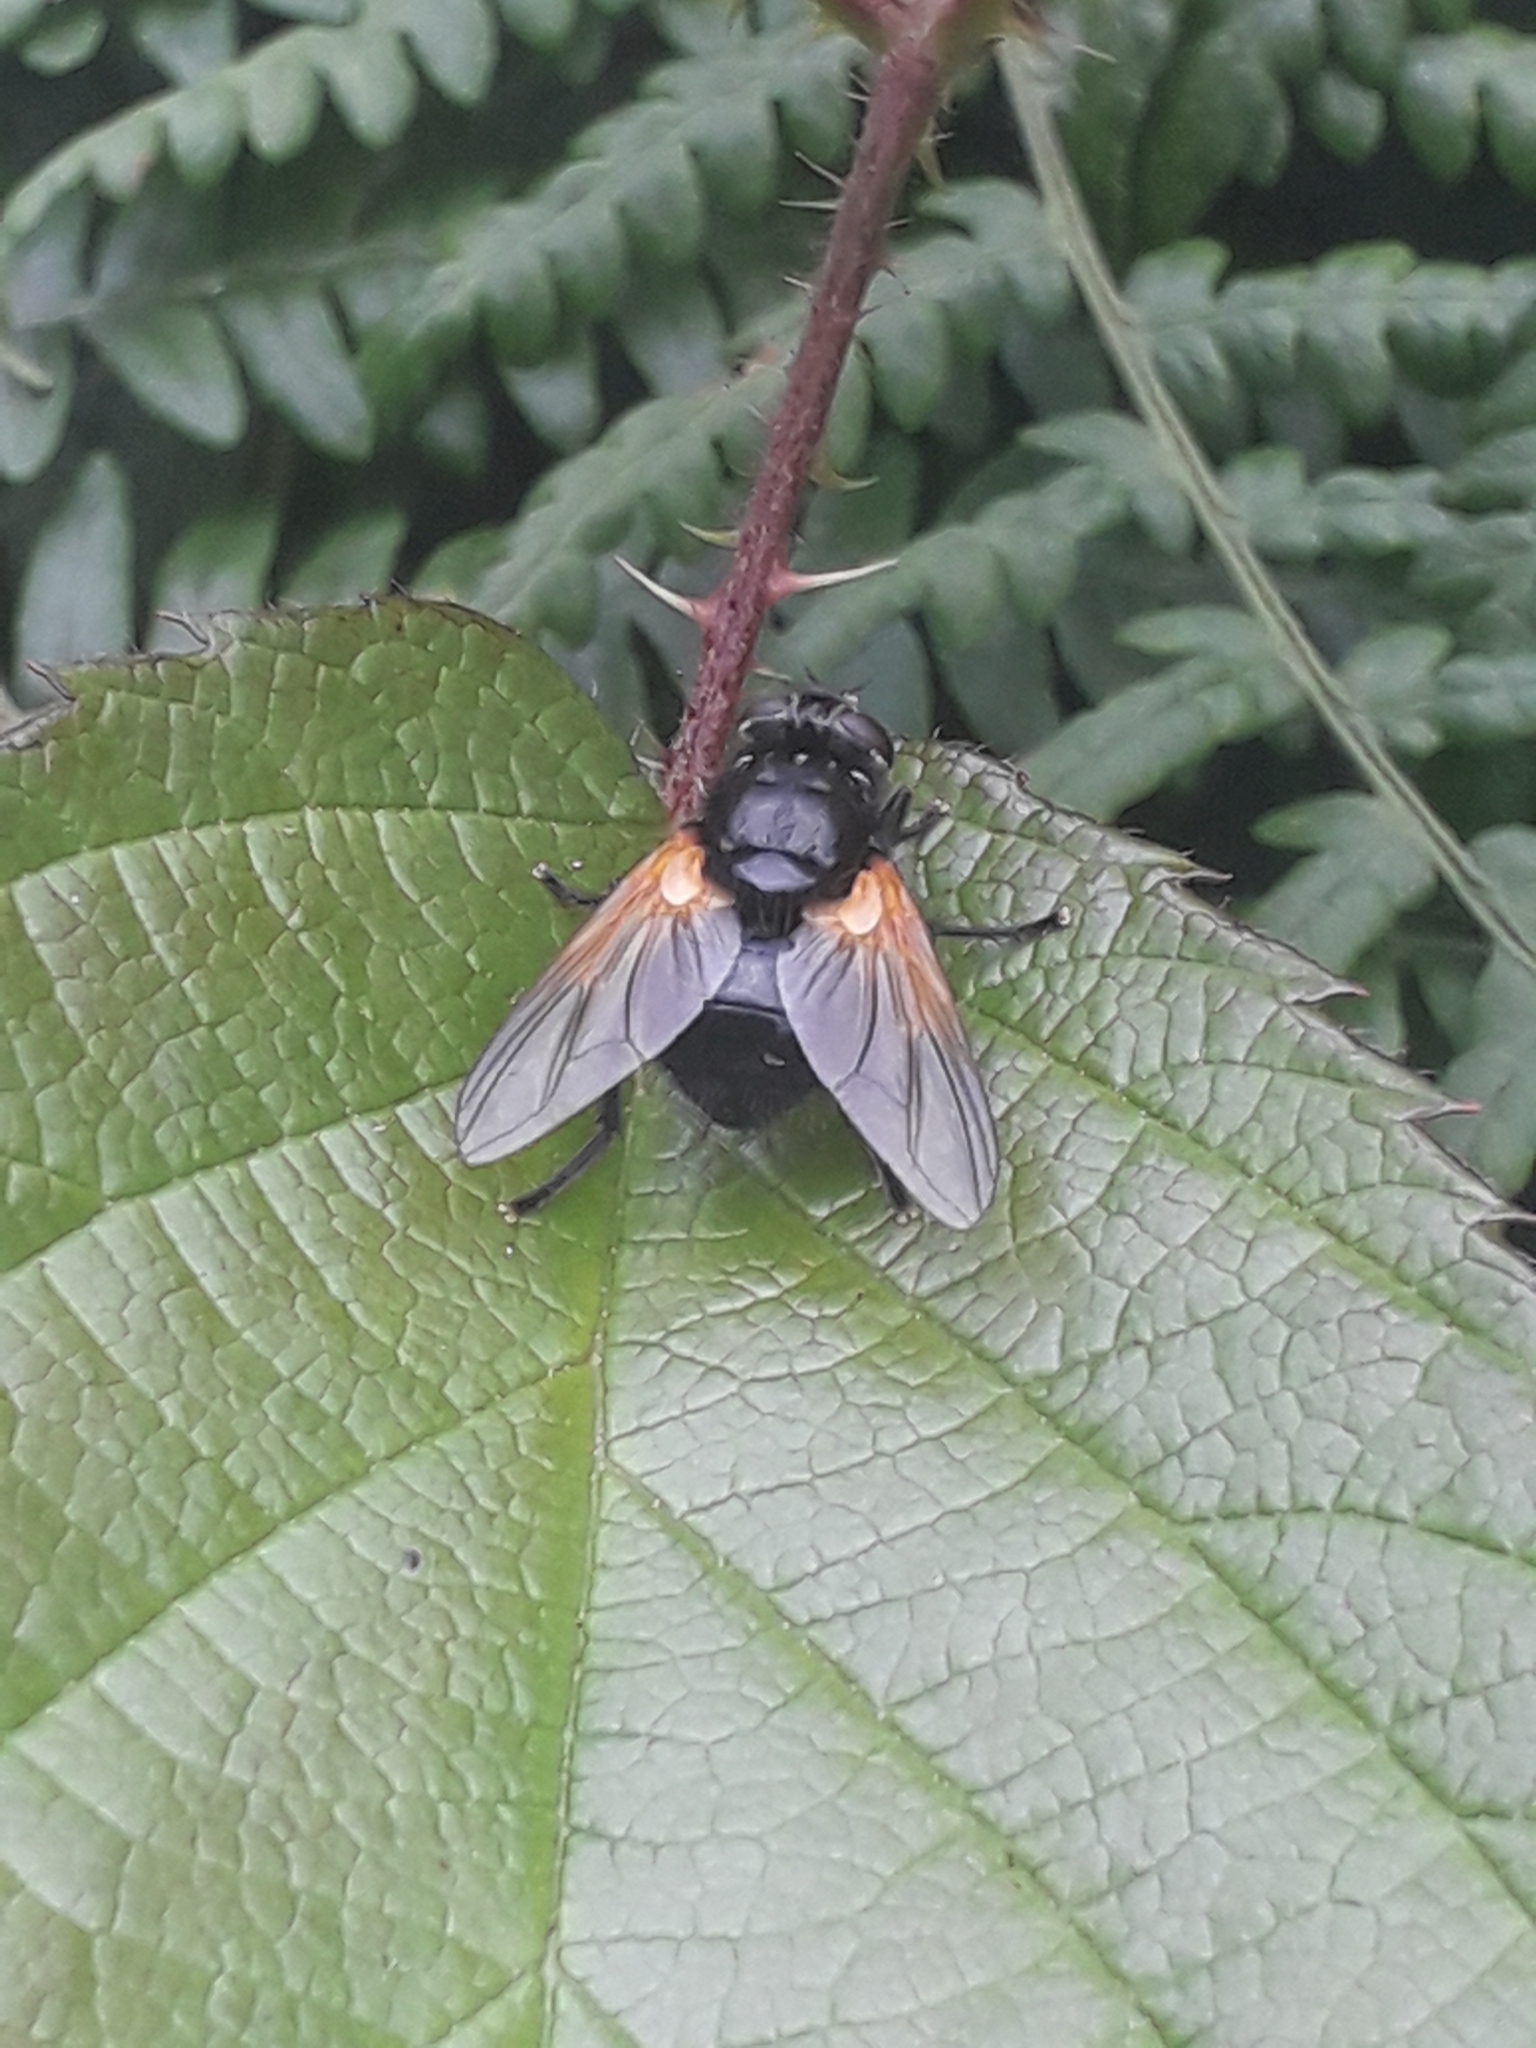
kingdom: Animalia
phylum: Arthropoda
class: Insecta
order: Diptera
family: Muscidae
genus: Mesembrina
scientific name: Mesembrina meridiana
